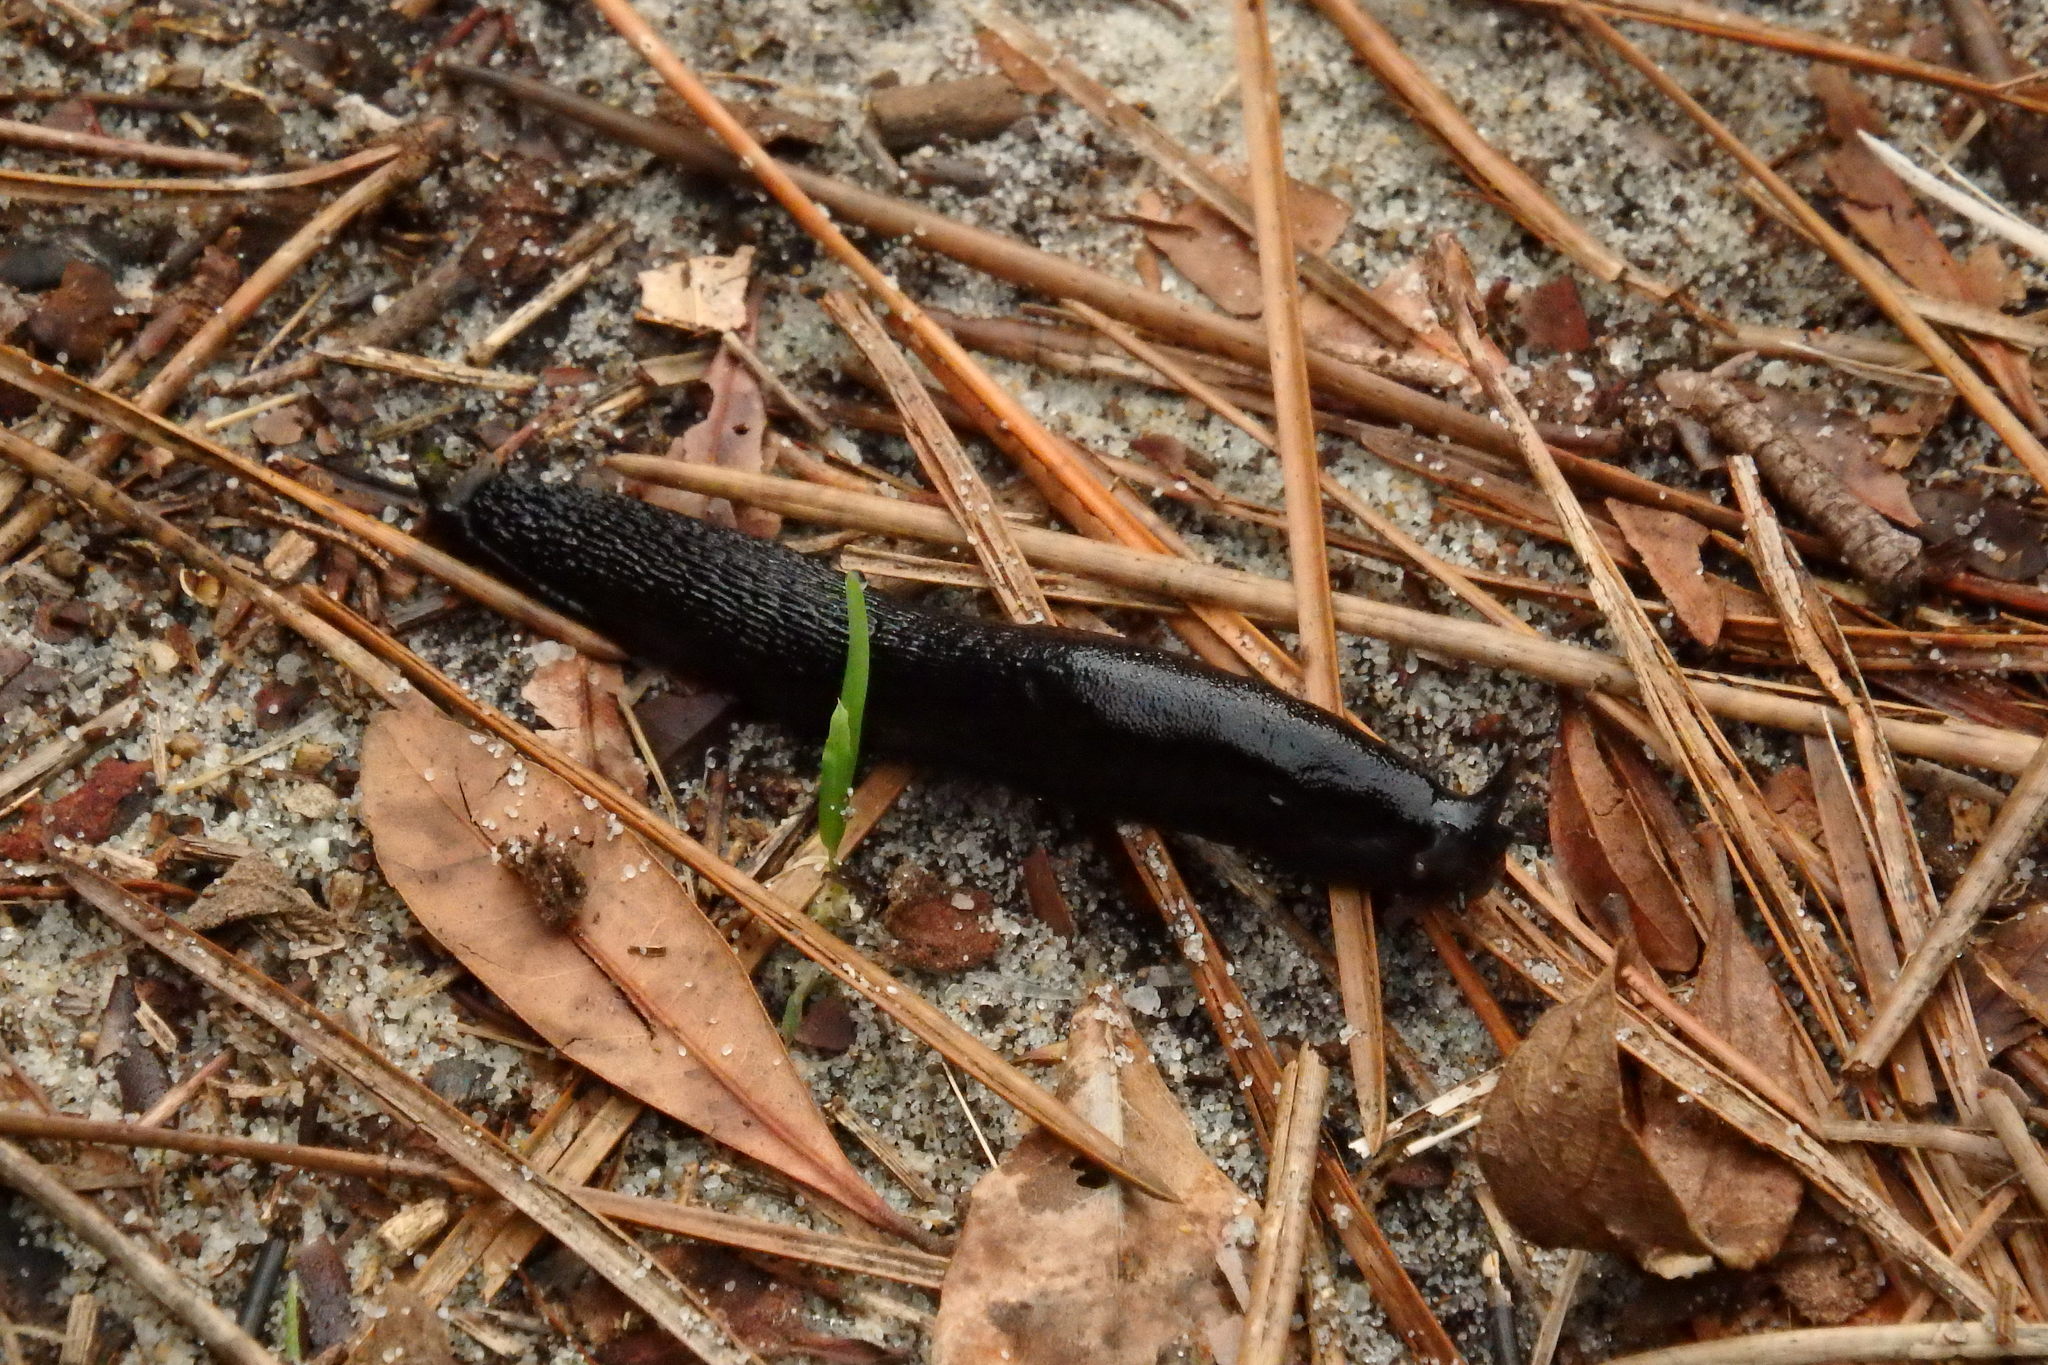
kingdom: Animalia
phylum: Mollusca
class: Gastropoda
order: Stylommatophora
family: Arionidae
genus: Arion
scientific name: Arion ater
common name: Black arion
